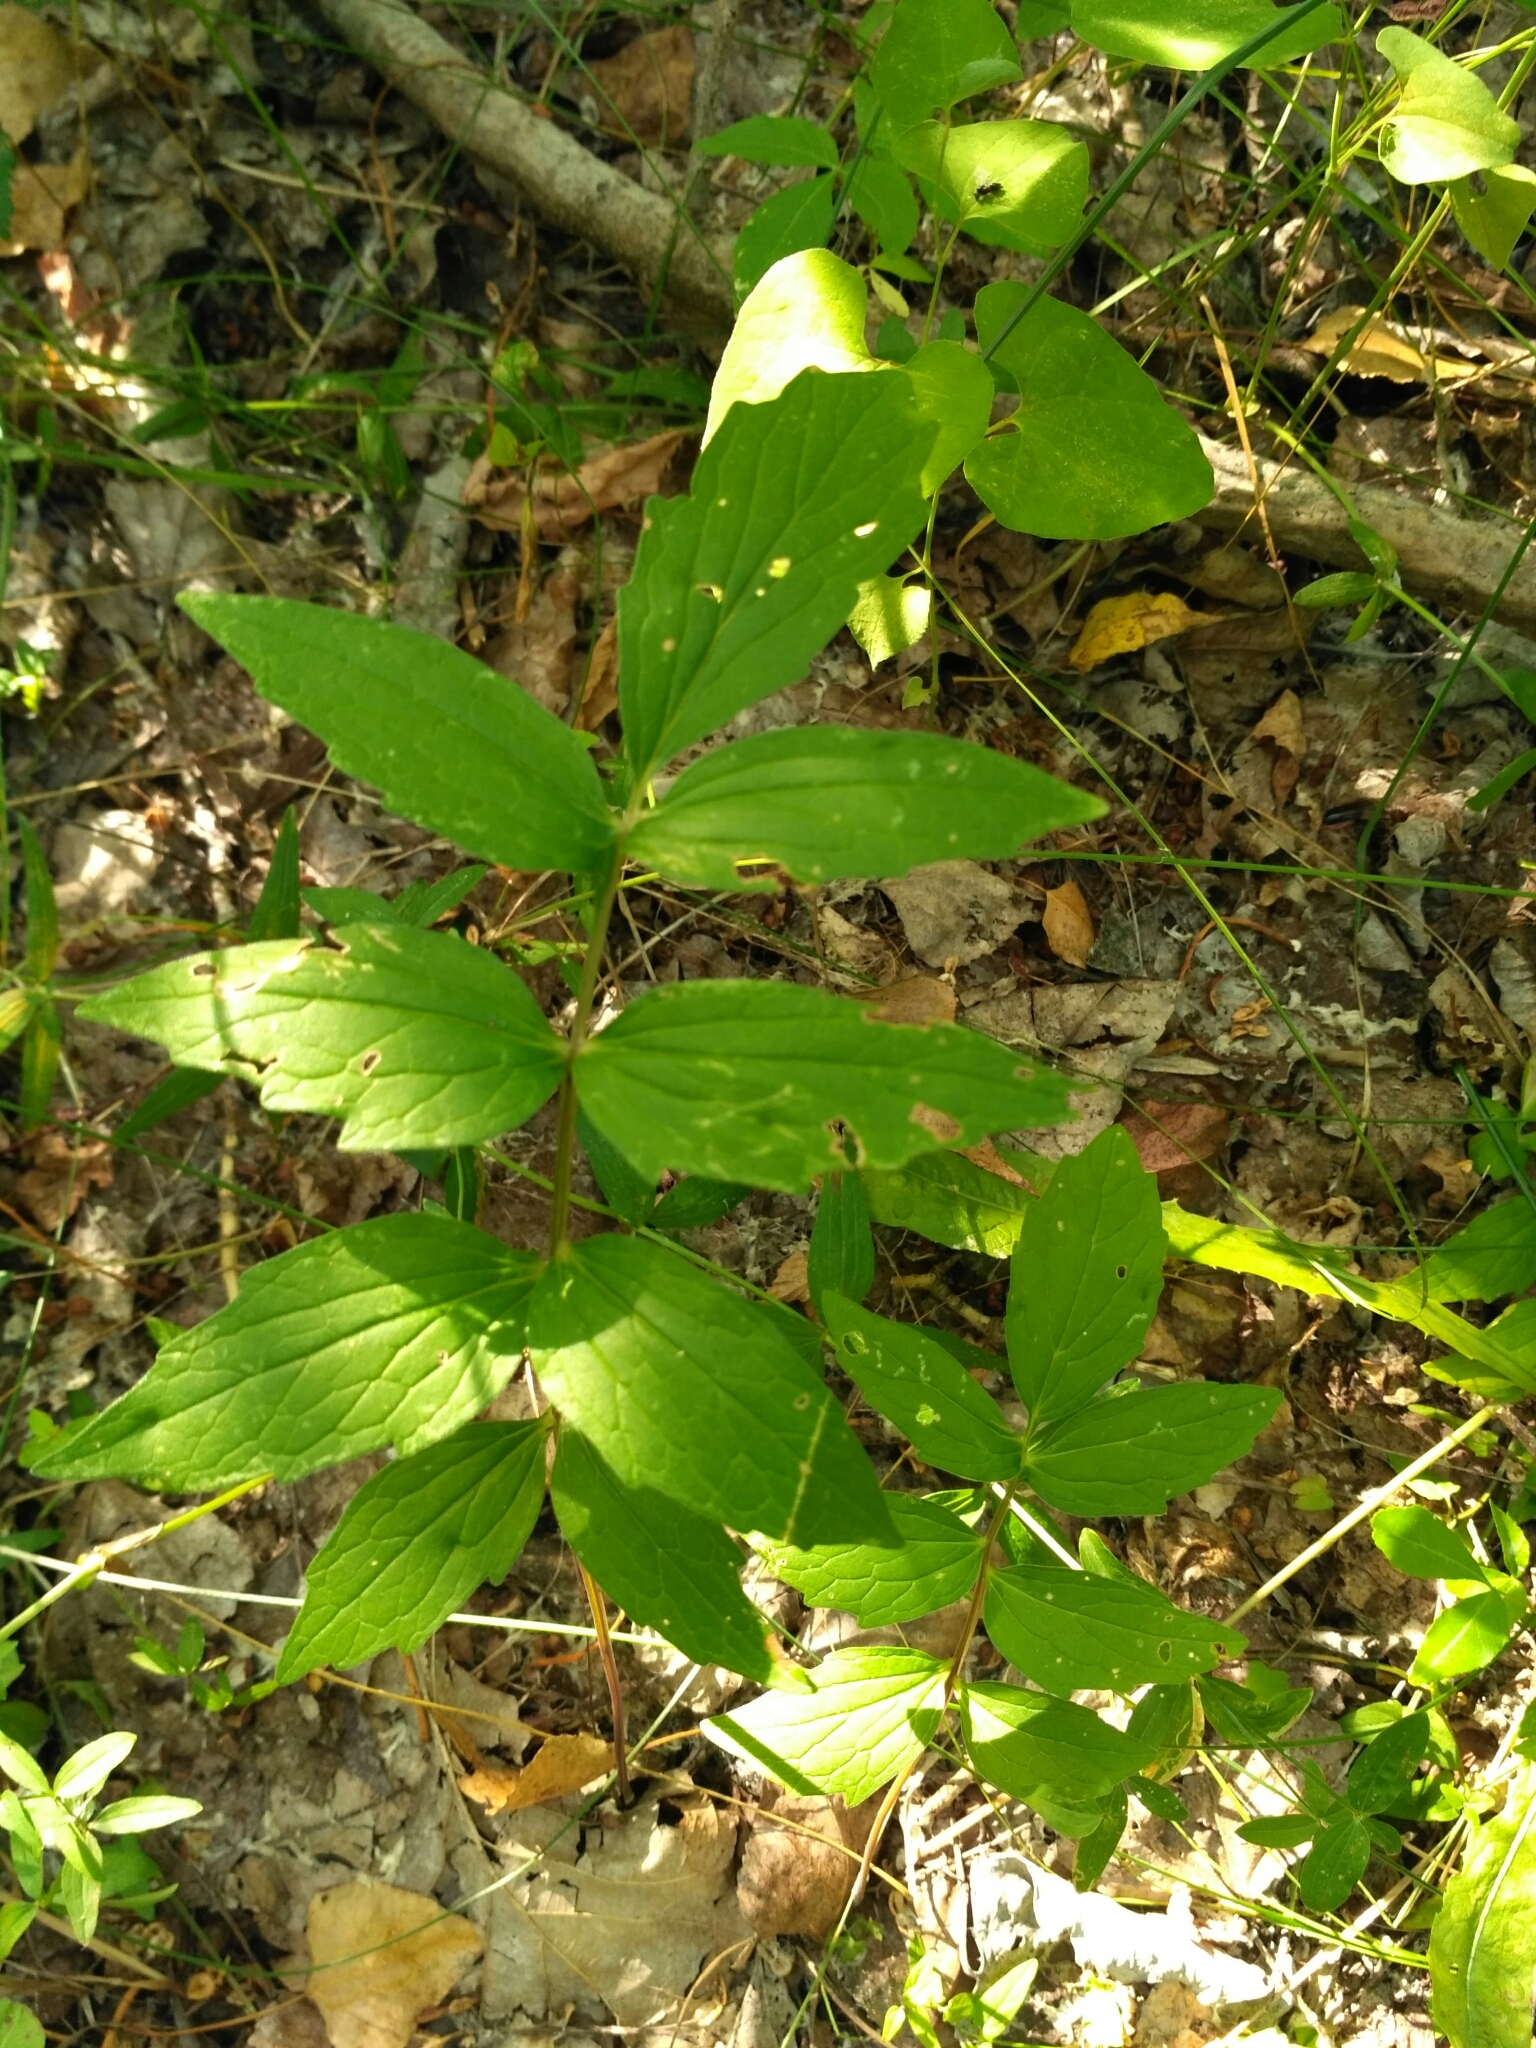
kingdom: Plantae
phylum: Tracheophyta
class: Magnoliopsida
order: Dipsacales
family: Caprifoliaceae
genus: Valeriana
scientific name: Valeriana officinalis
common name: Common valerian
